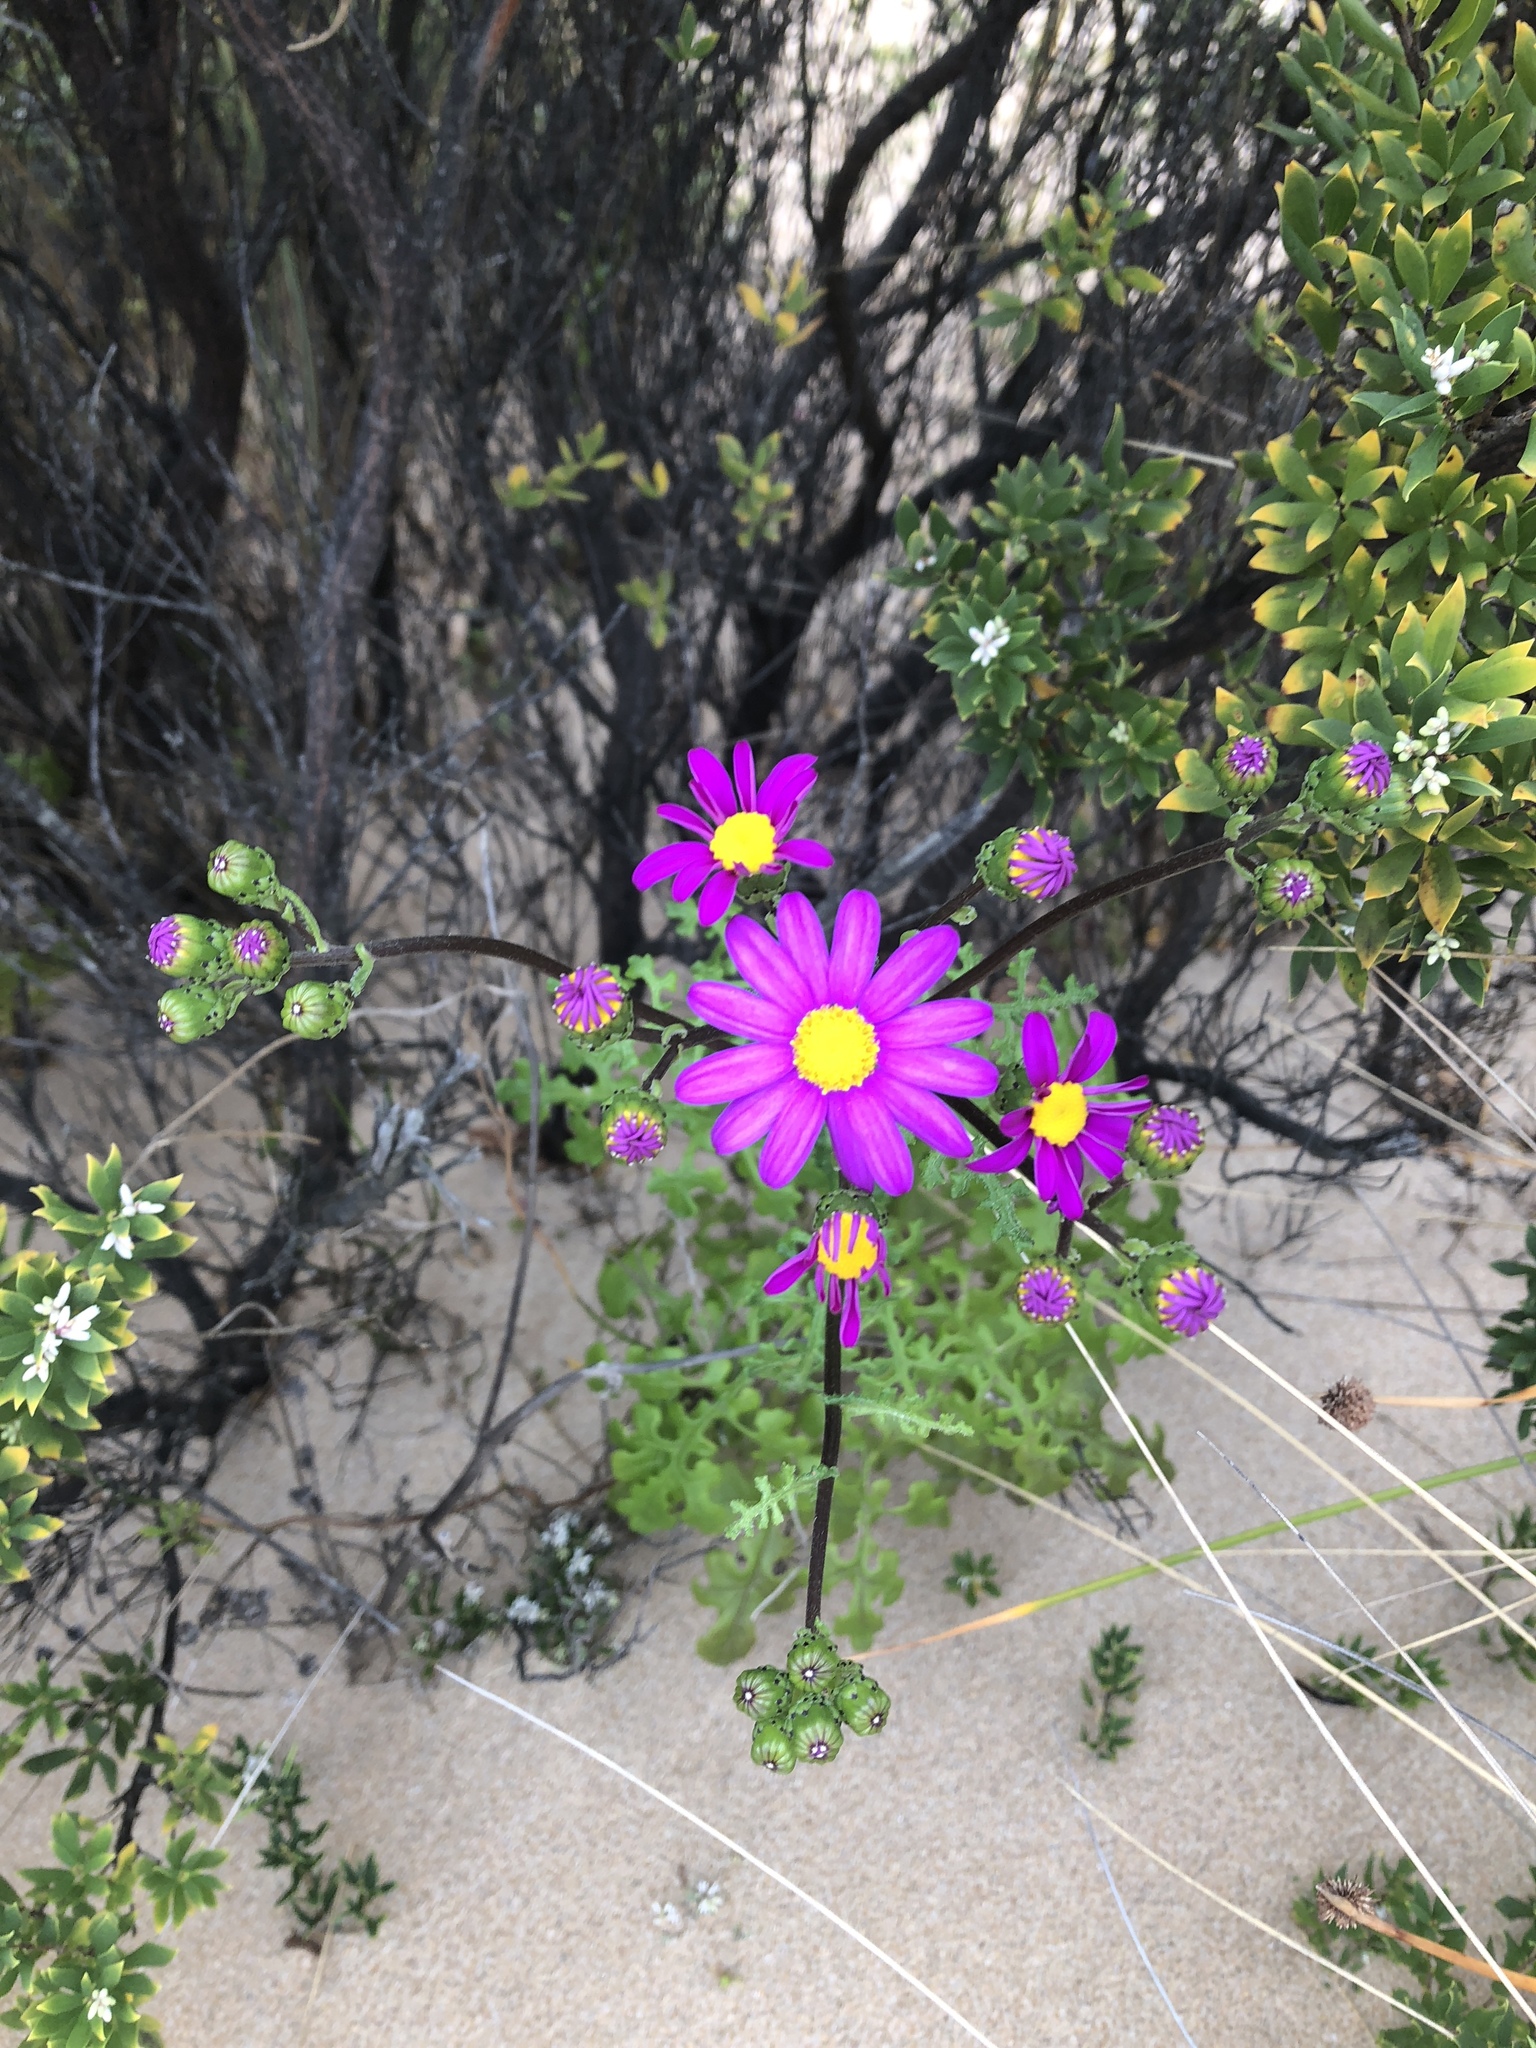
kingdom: Plantae
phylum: Tracheophyta
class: Magnoliopsida
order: Asterales
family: Asteraceae
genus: Senecio
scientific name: Senecio elegans
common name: Purple groundsel
